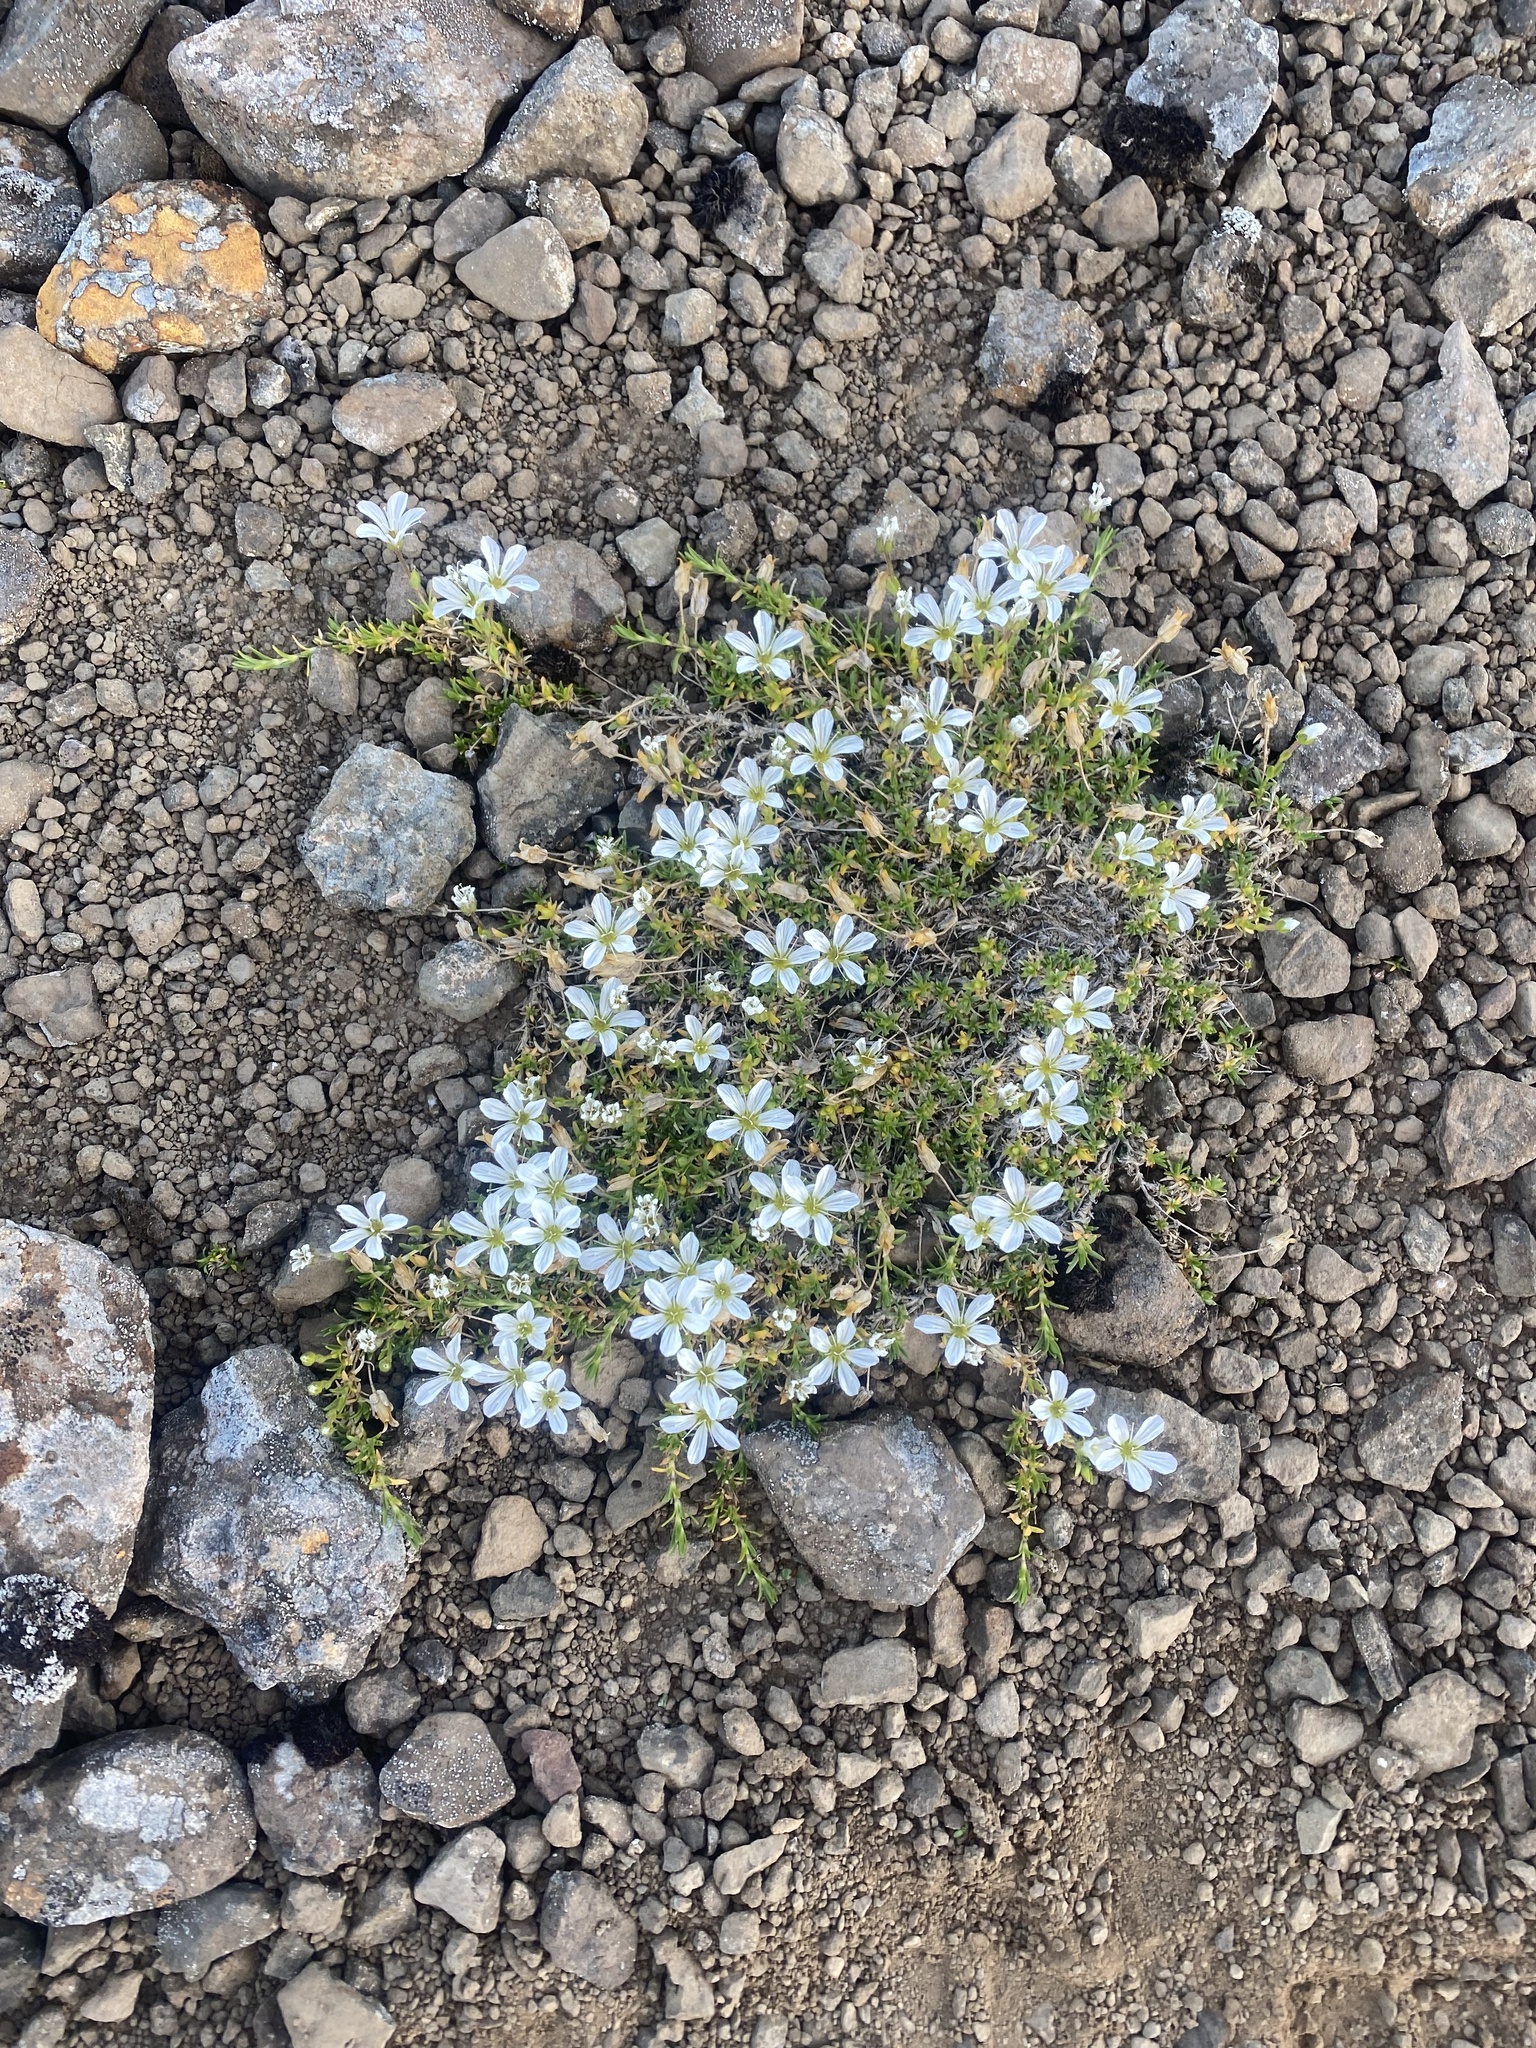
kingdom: Plantae
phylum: Tracheophyta
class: Magnoliopsida
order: Caryophyllales
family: Caryophyllaceae
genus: Pseudocherleria
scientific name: Pseudocherleria macrocarpa
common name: Large-fruit sandwort
